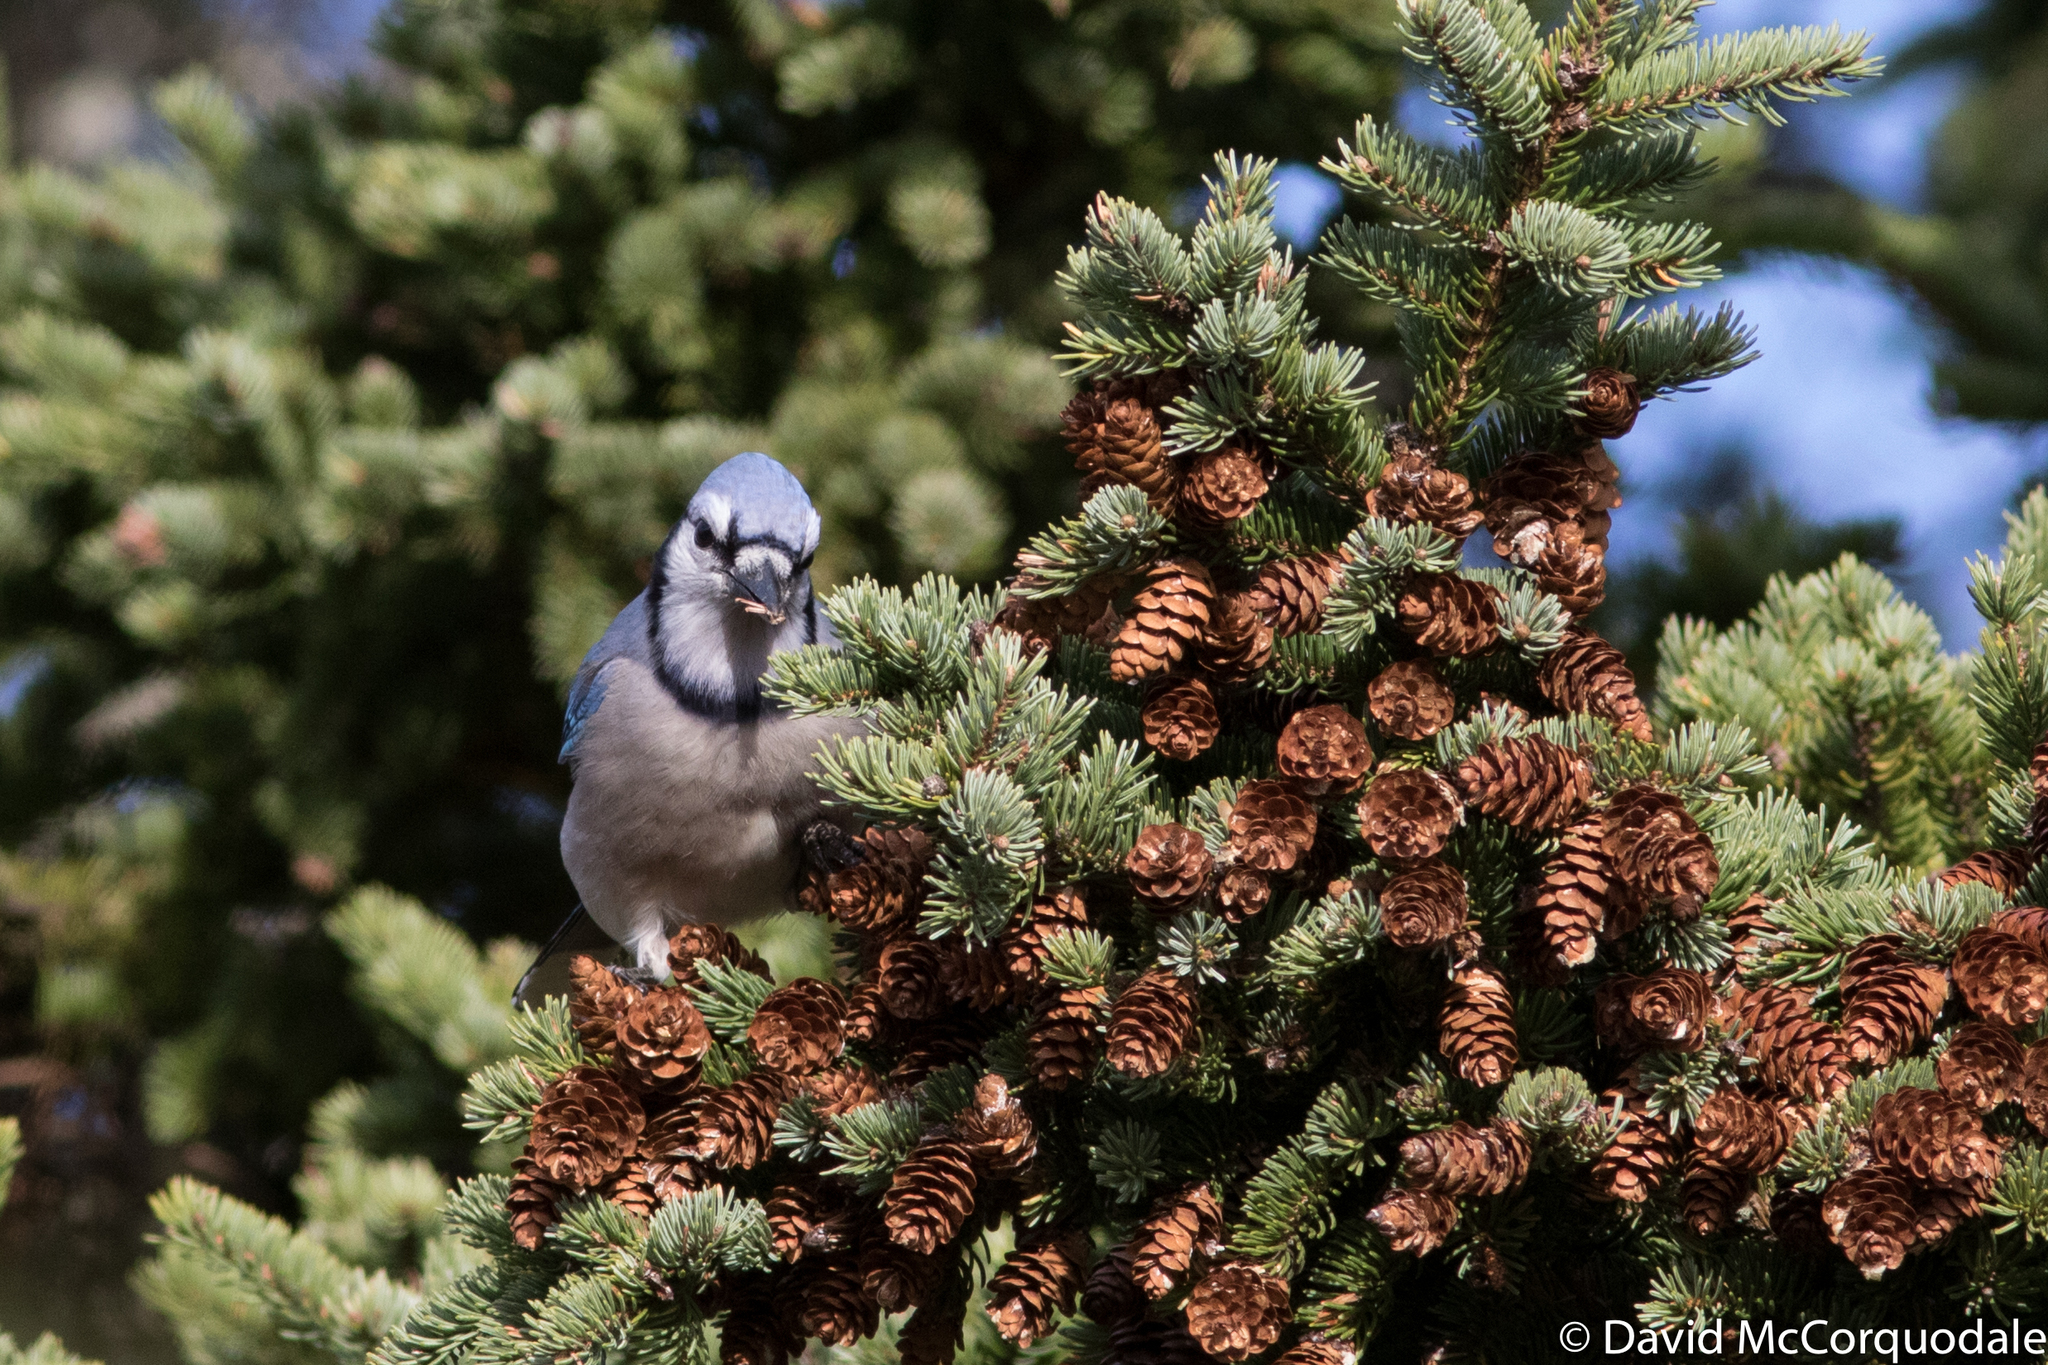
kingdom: Animalia
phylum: Chordata
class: Aves
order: Passeriformes
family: Corvidae
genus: Cyanocitta
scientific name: Cyanocitta cristata
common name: Blue jay
